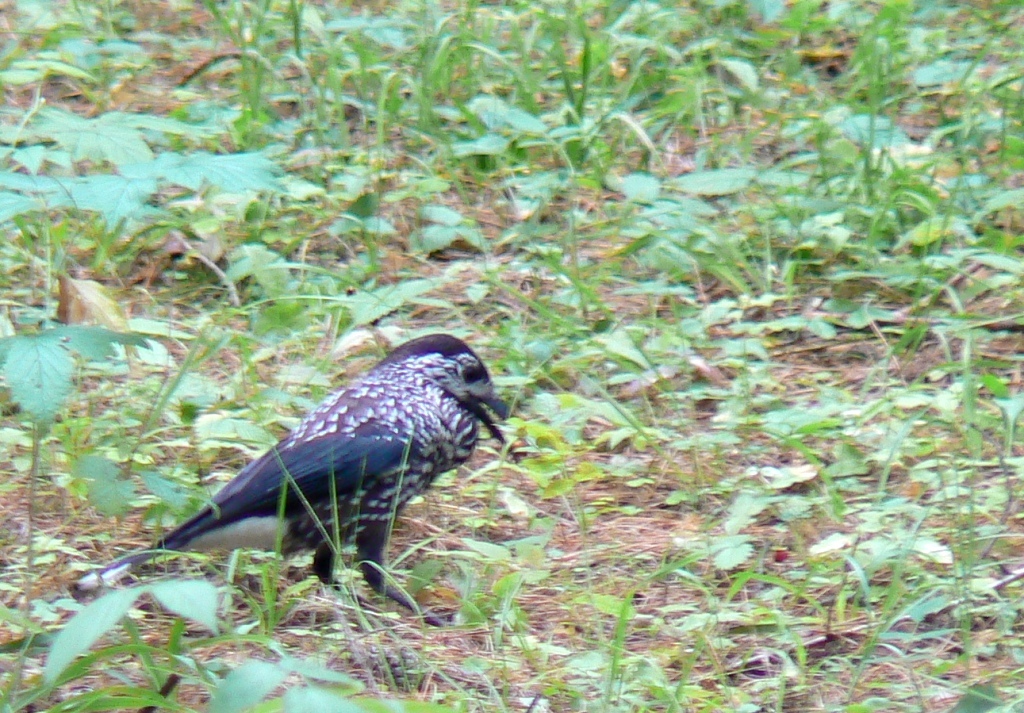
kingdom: Animalia
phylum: Chordata
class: Aves
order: Passeriformes
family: Corvidae
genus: Nucifraga
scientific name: Nucifraga caryocatactes
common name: Spotted nutcracker
